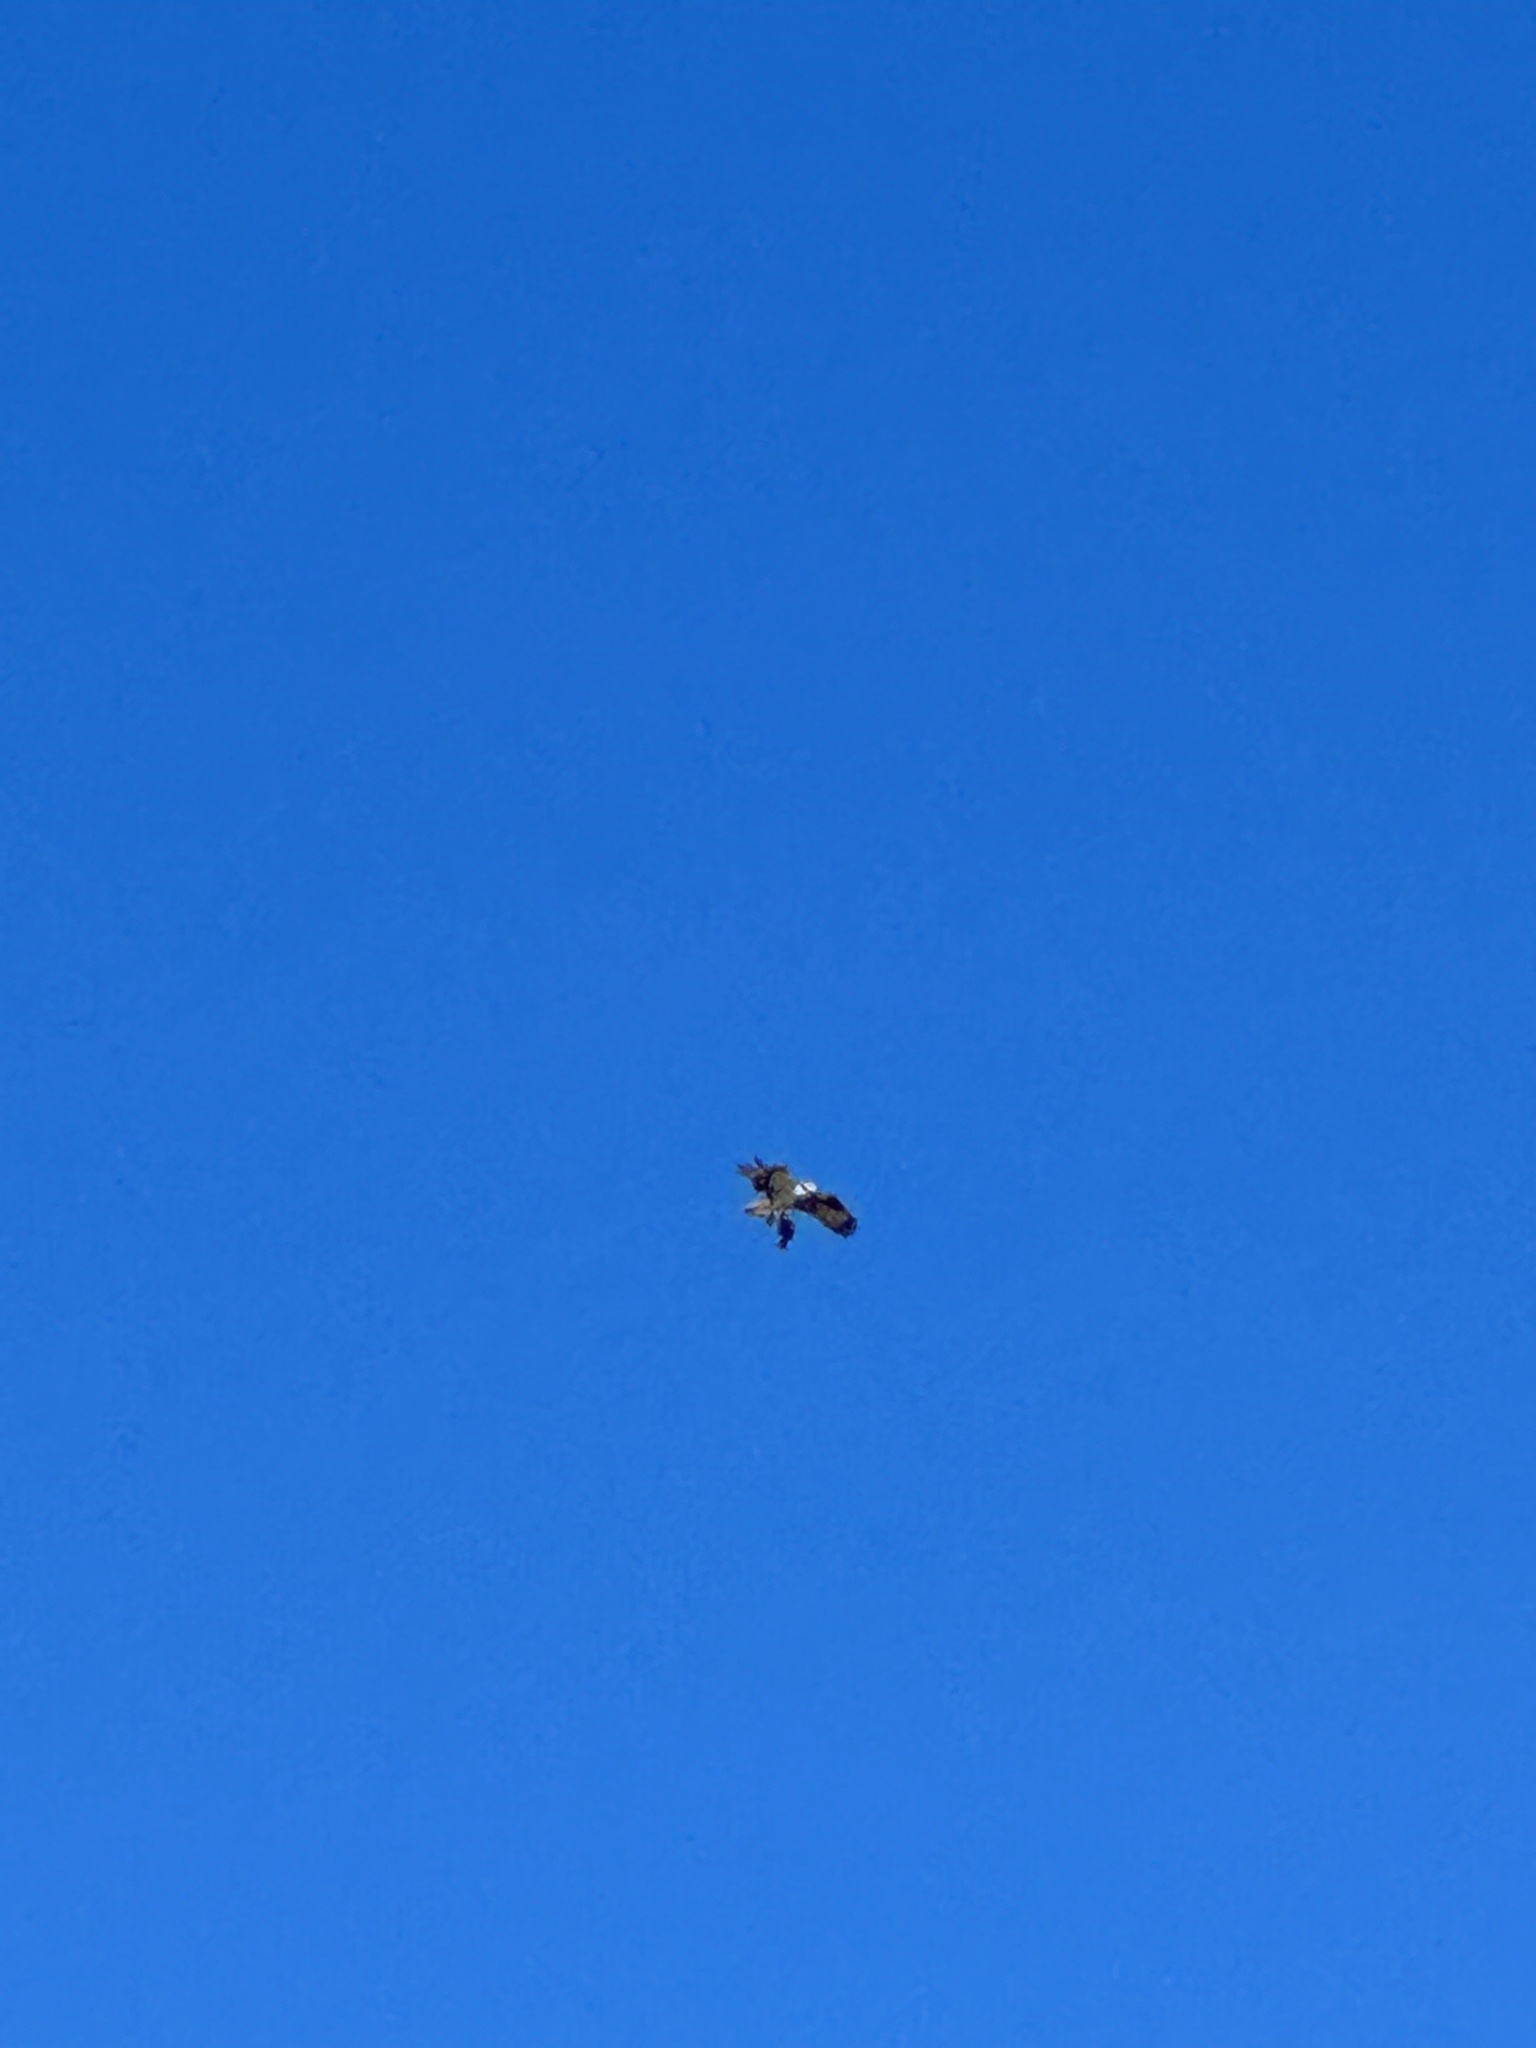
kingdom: Animalia
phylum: Chordata
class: Aves
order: Accipitriformes
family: Pandionidae
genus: Pandion
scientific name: Pandion haliaetus
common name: Osprey
